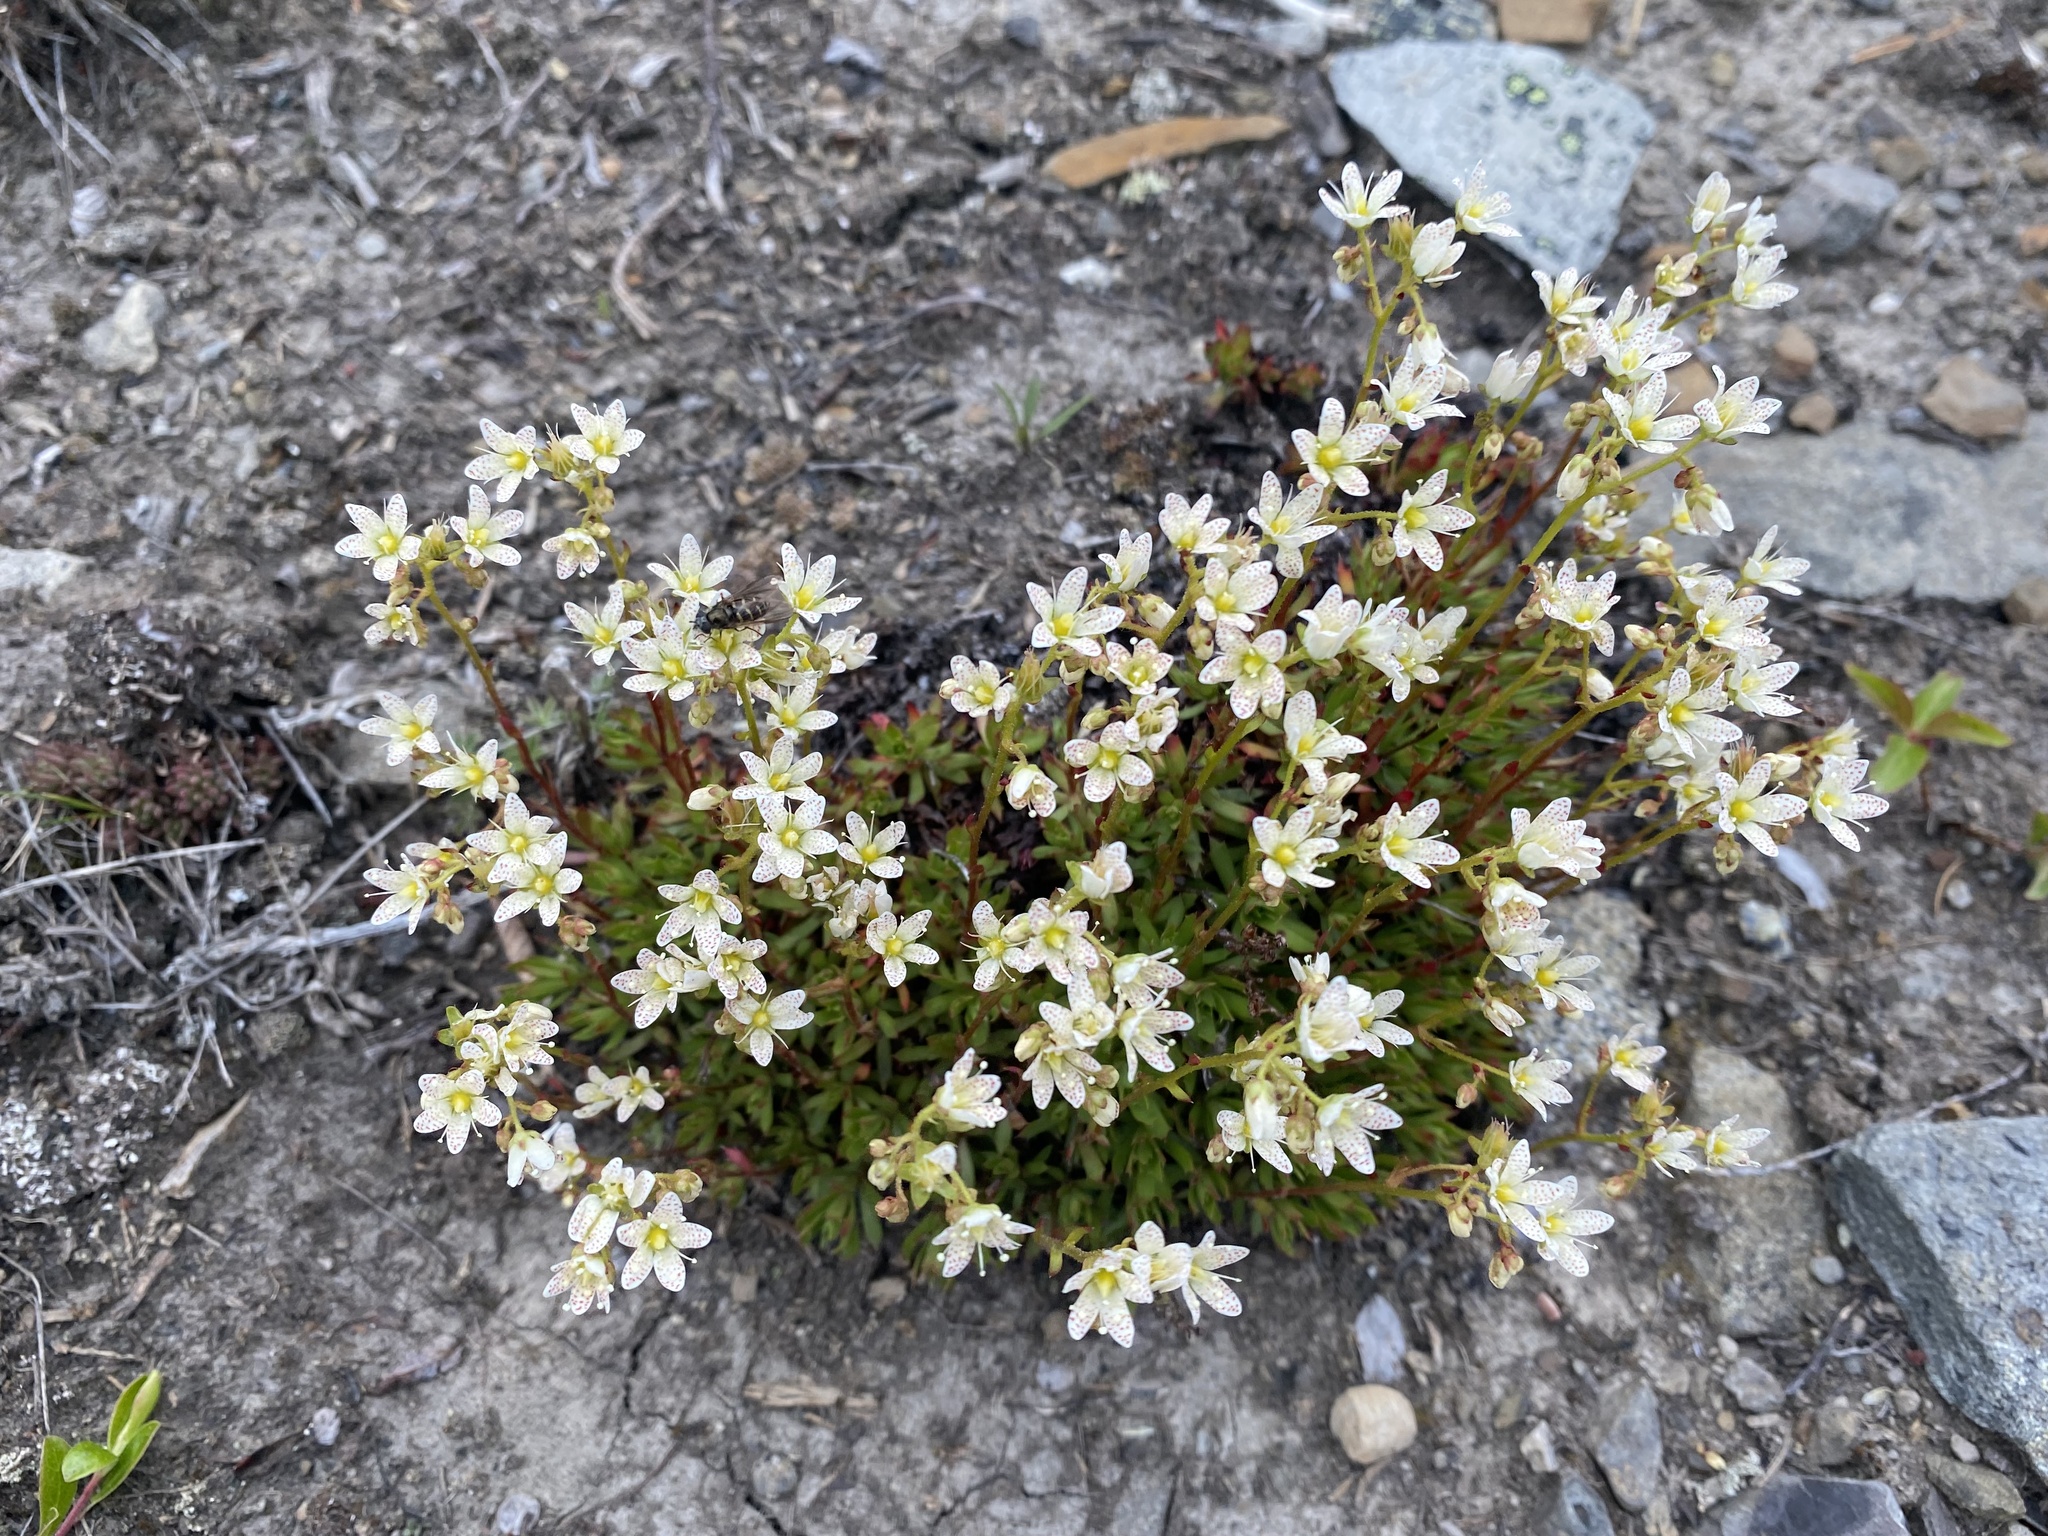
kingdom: Plantae
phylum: Tracheophyta
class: Magnoliopsida
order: Saxifragales
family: Saxifragaceae
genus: Saxifraga
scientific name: Saxifraga tricuspidata
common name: Prickly saxifrage
